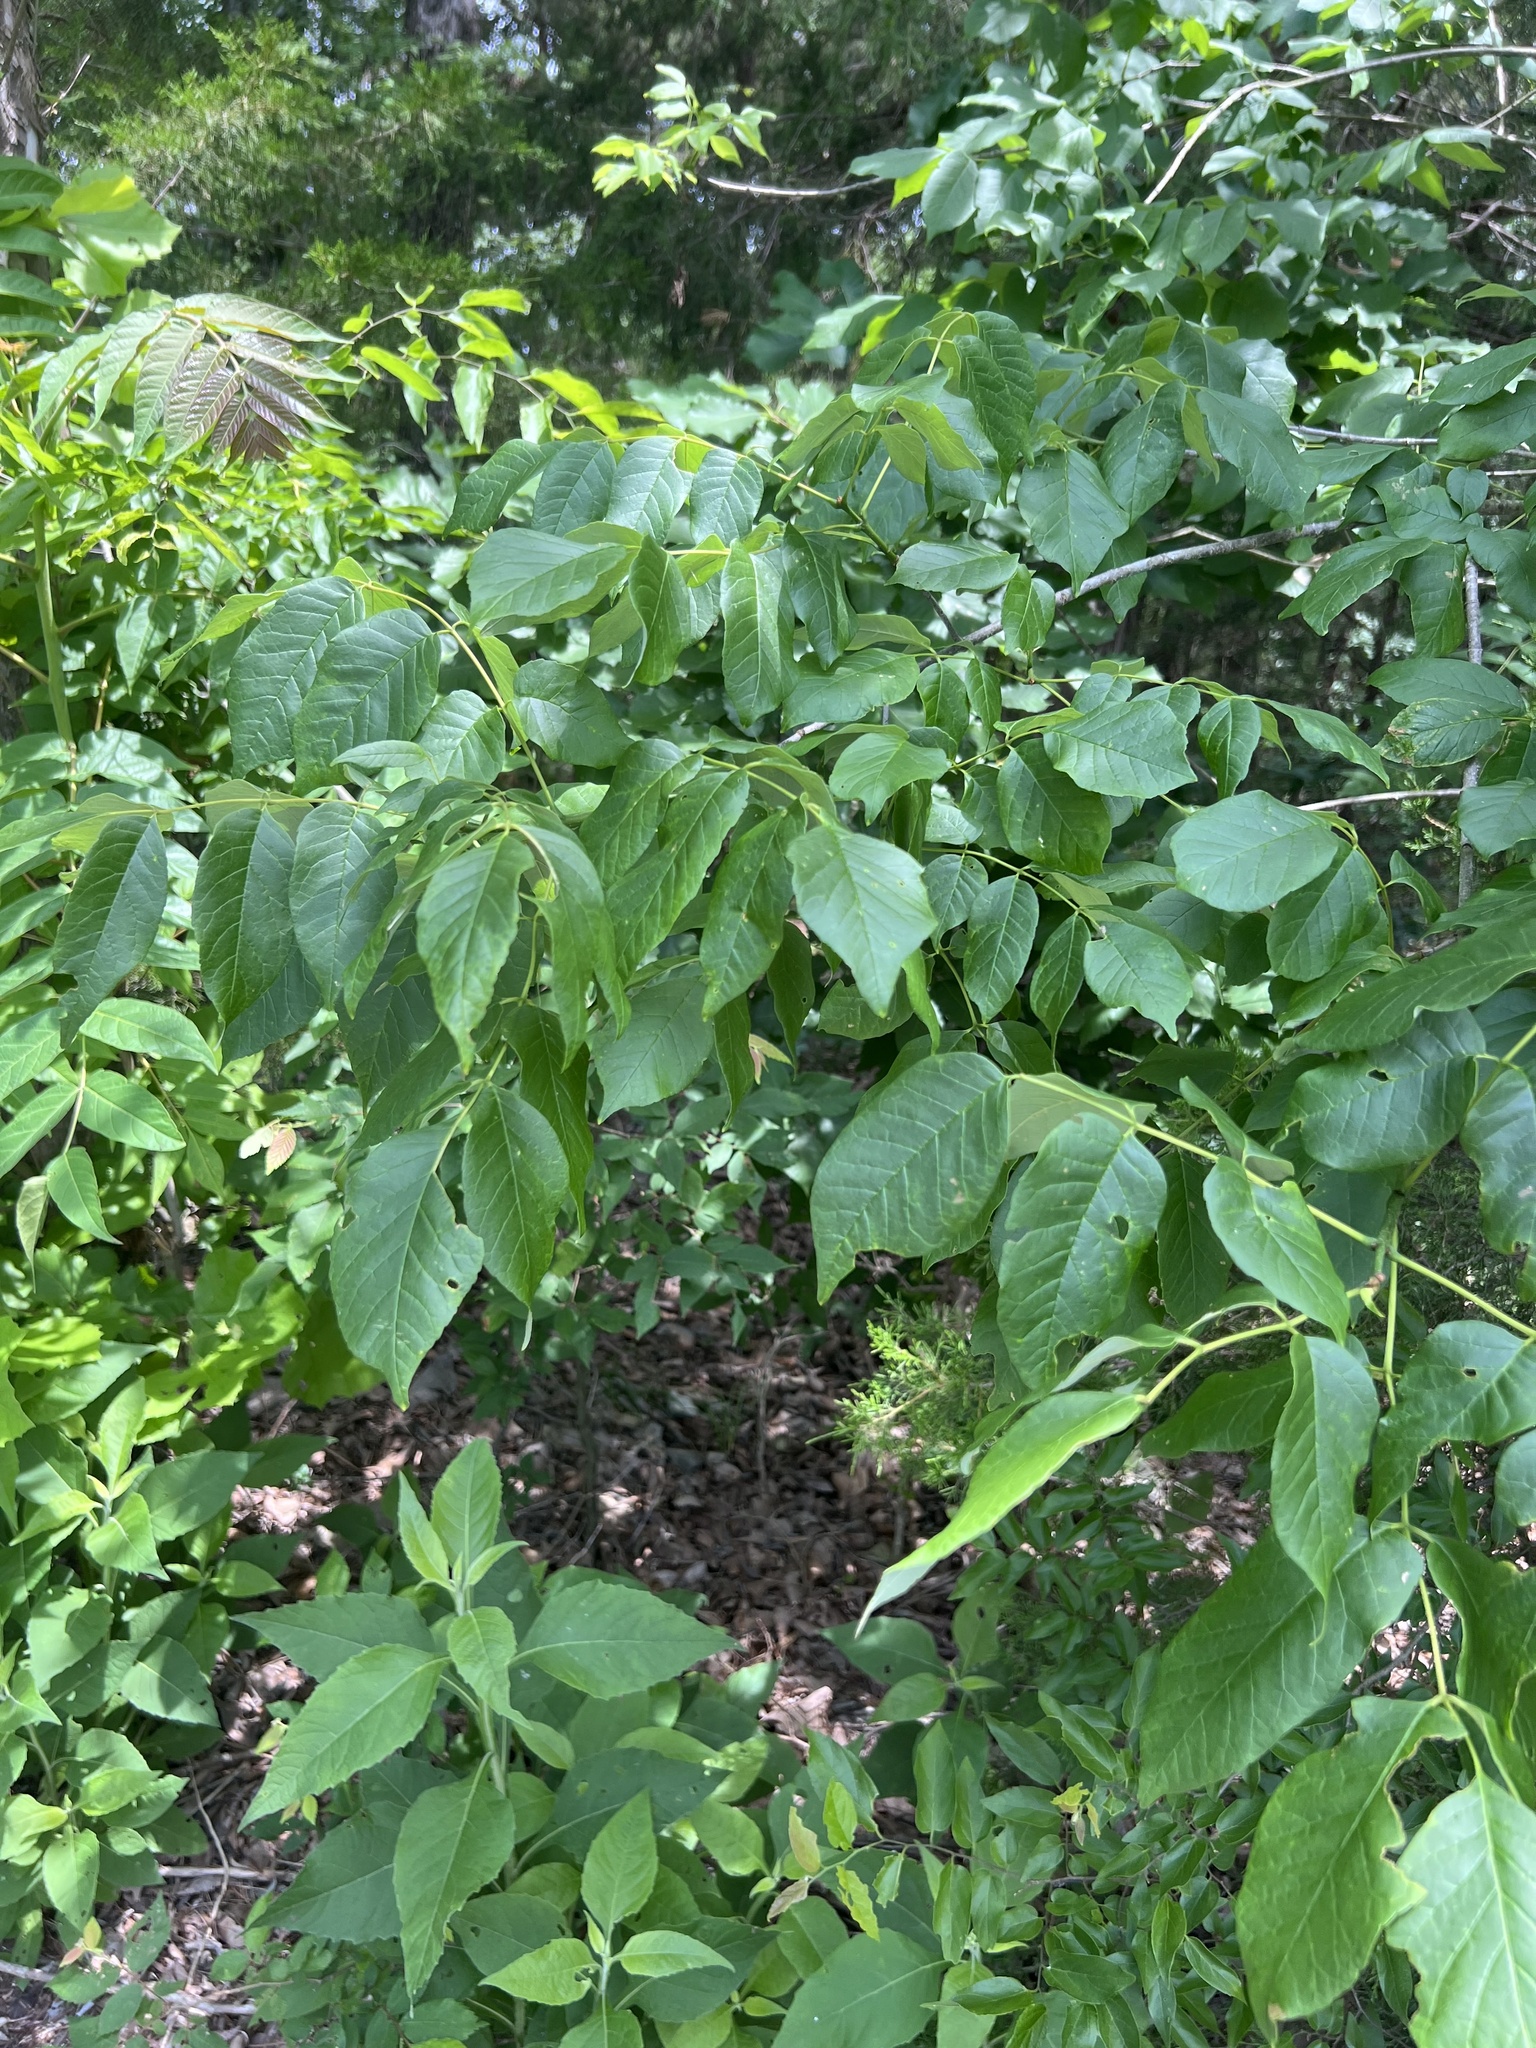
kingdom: Plantae
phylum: Tracheophyta
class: Magnoliopsida
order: Lamiales
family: Oleaceae
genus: Fraxinus
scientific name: Fraxinus americana
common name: White ash
